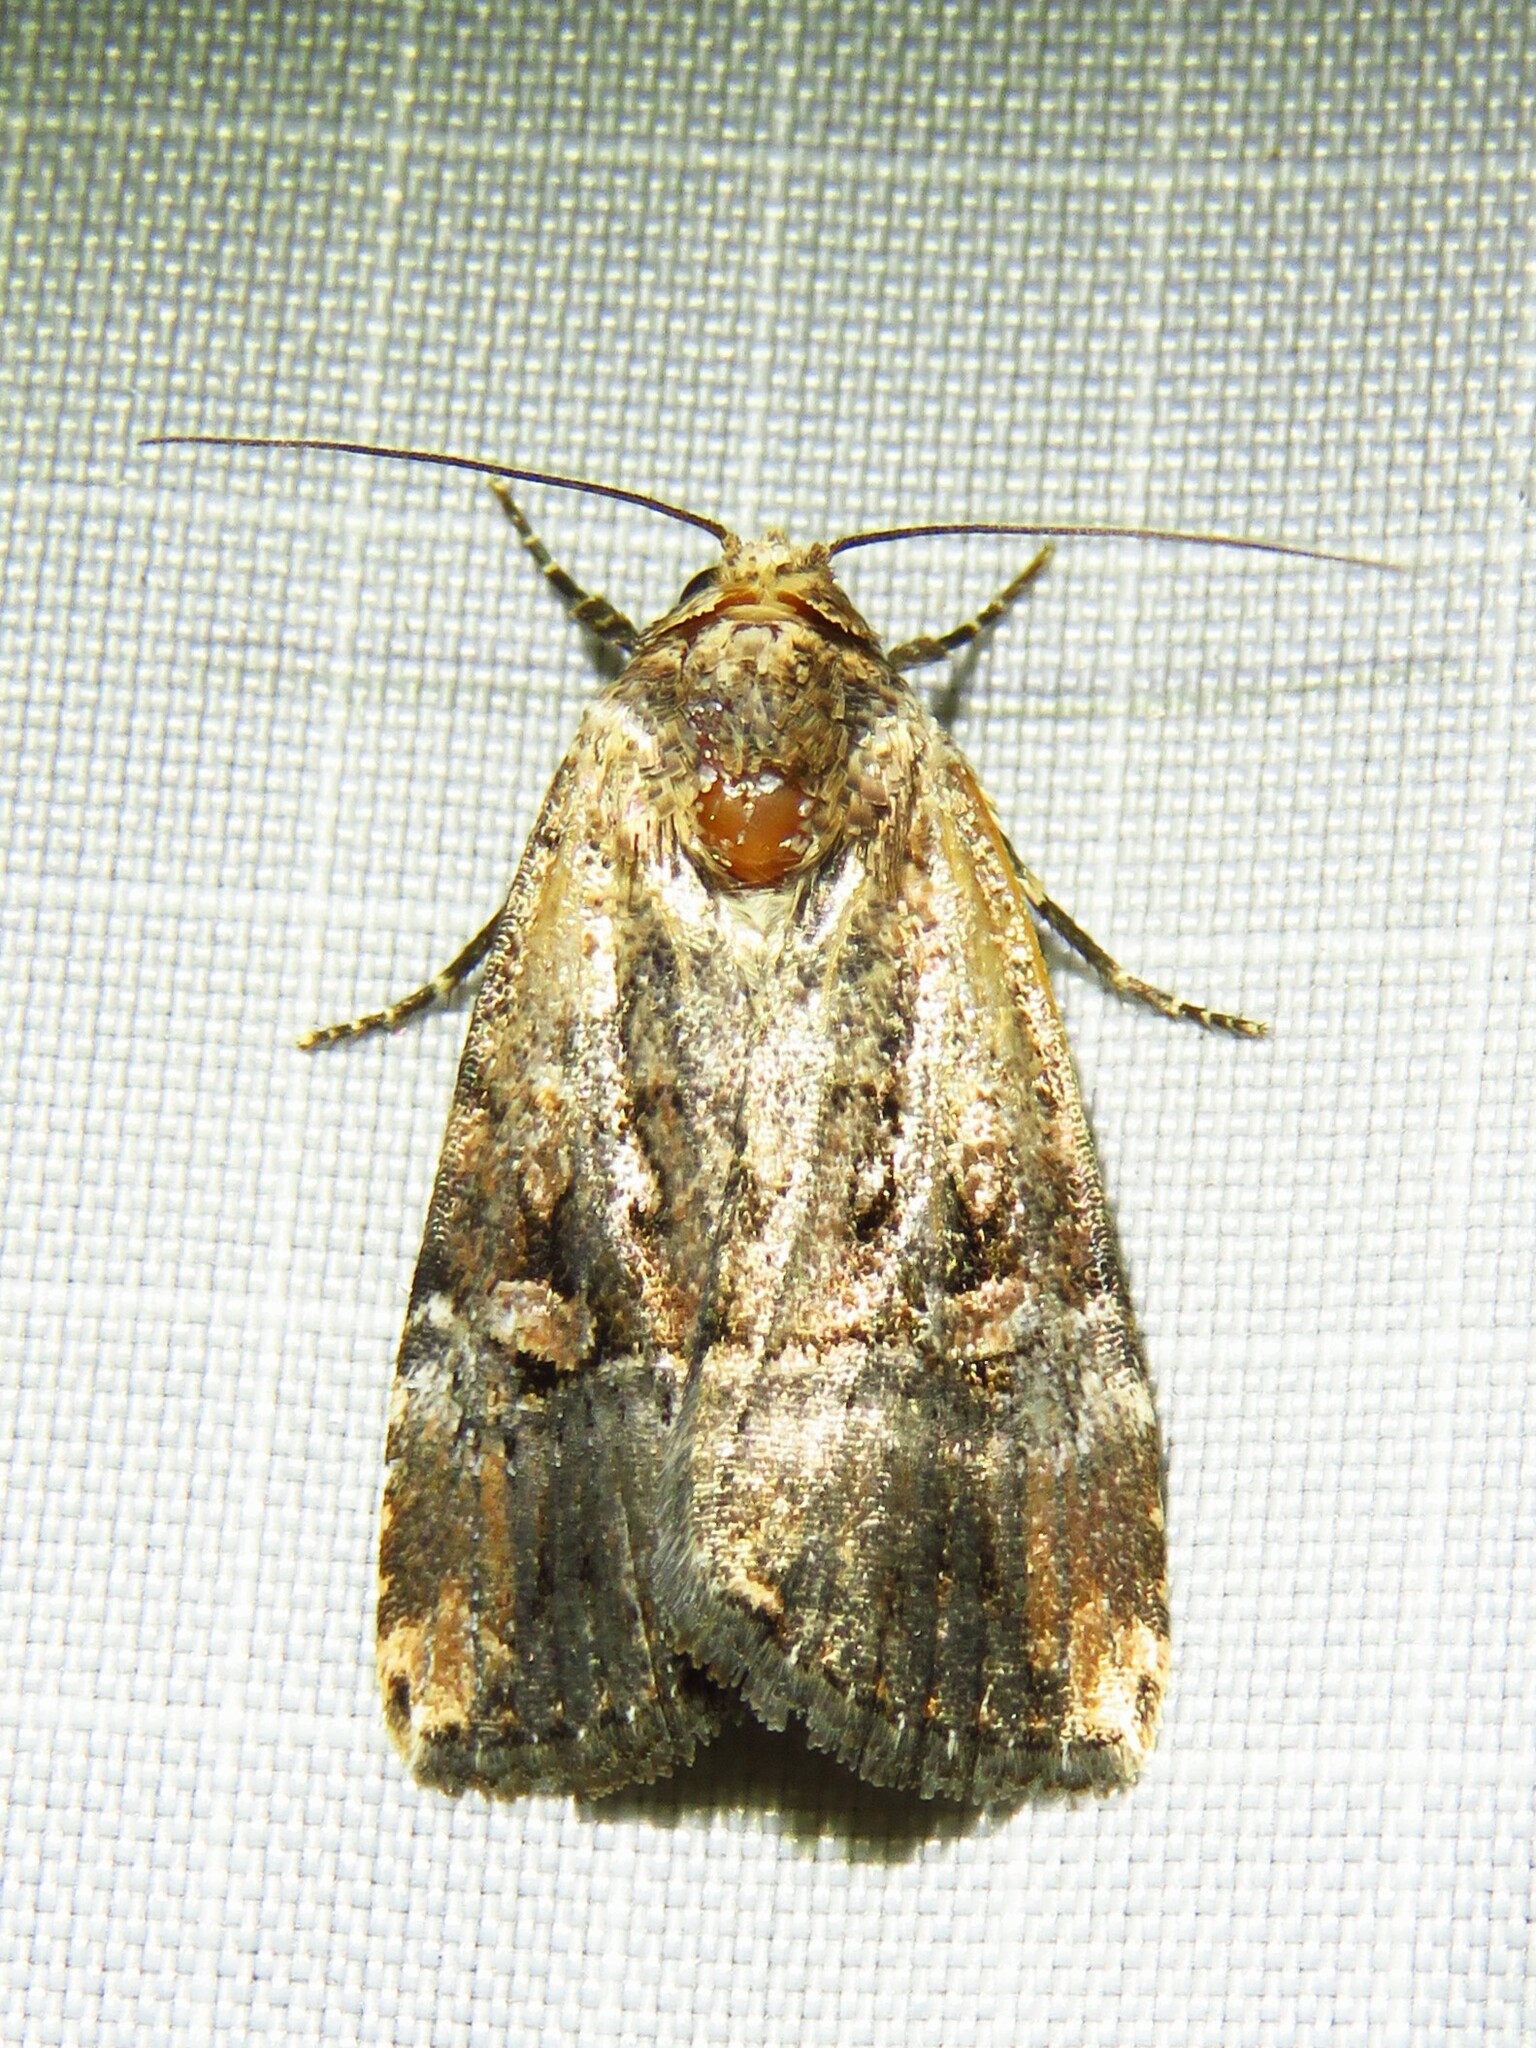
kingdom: Animalia
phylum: Arthropoda
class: Insecta
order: Lepidoptera
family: Noctuidae
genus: Elaphria
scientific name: Elaphria chalcedonia
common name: Chalcedony midget
